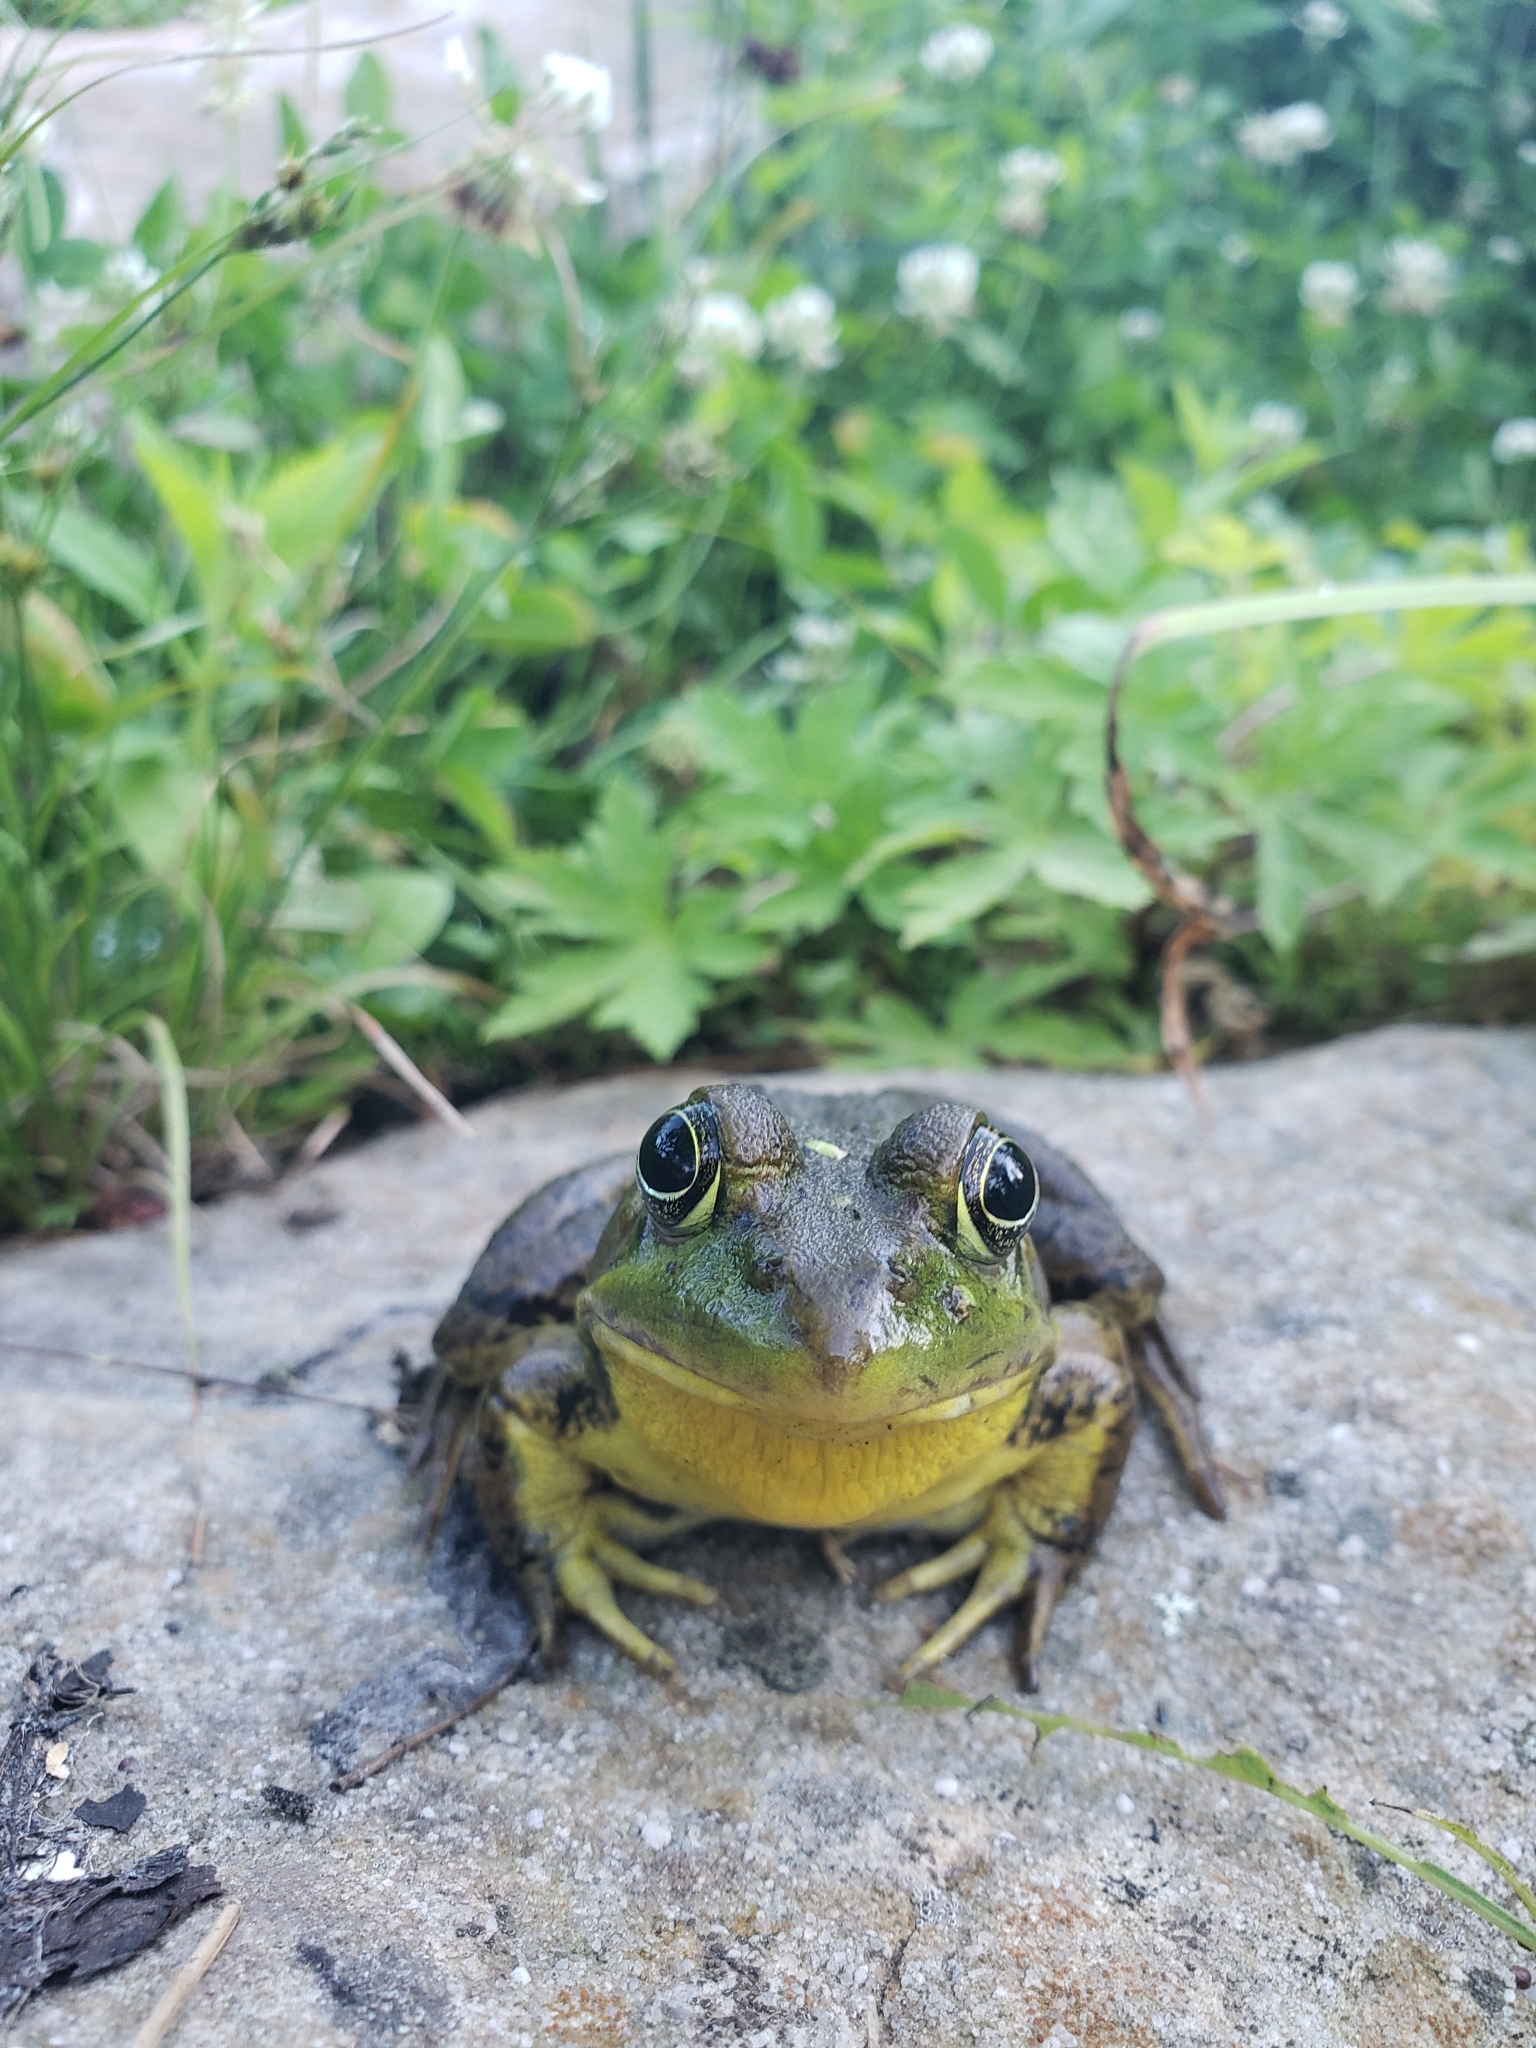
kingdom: Animalia
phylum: Chordata
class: Amphibia
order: Anura
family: Ranidae
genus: Lithobates
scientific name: Lithobates clamitans
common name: Green frog
